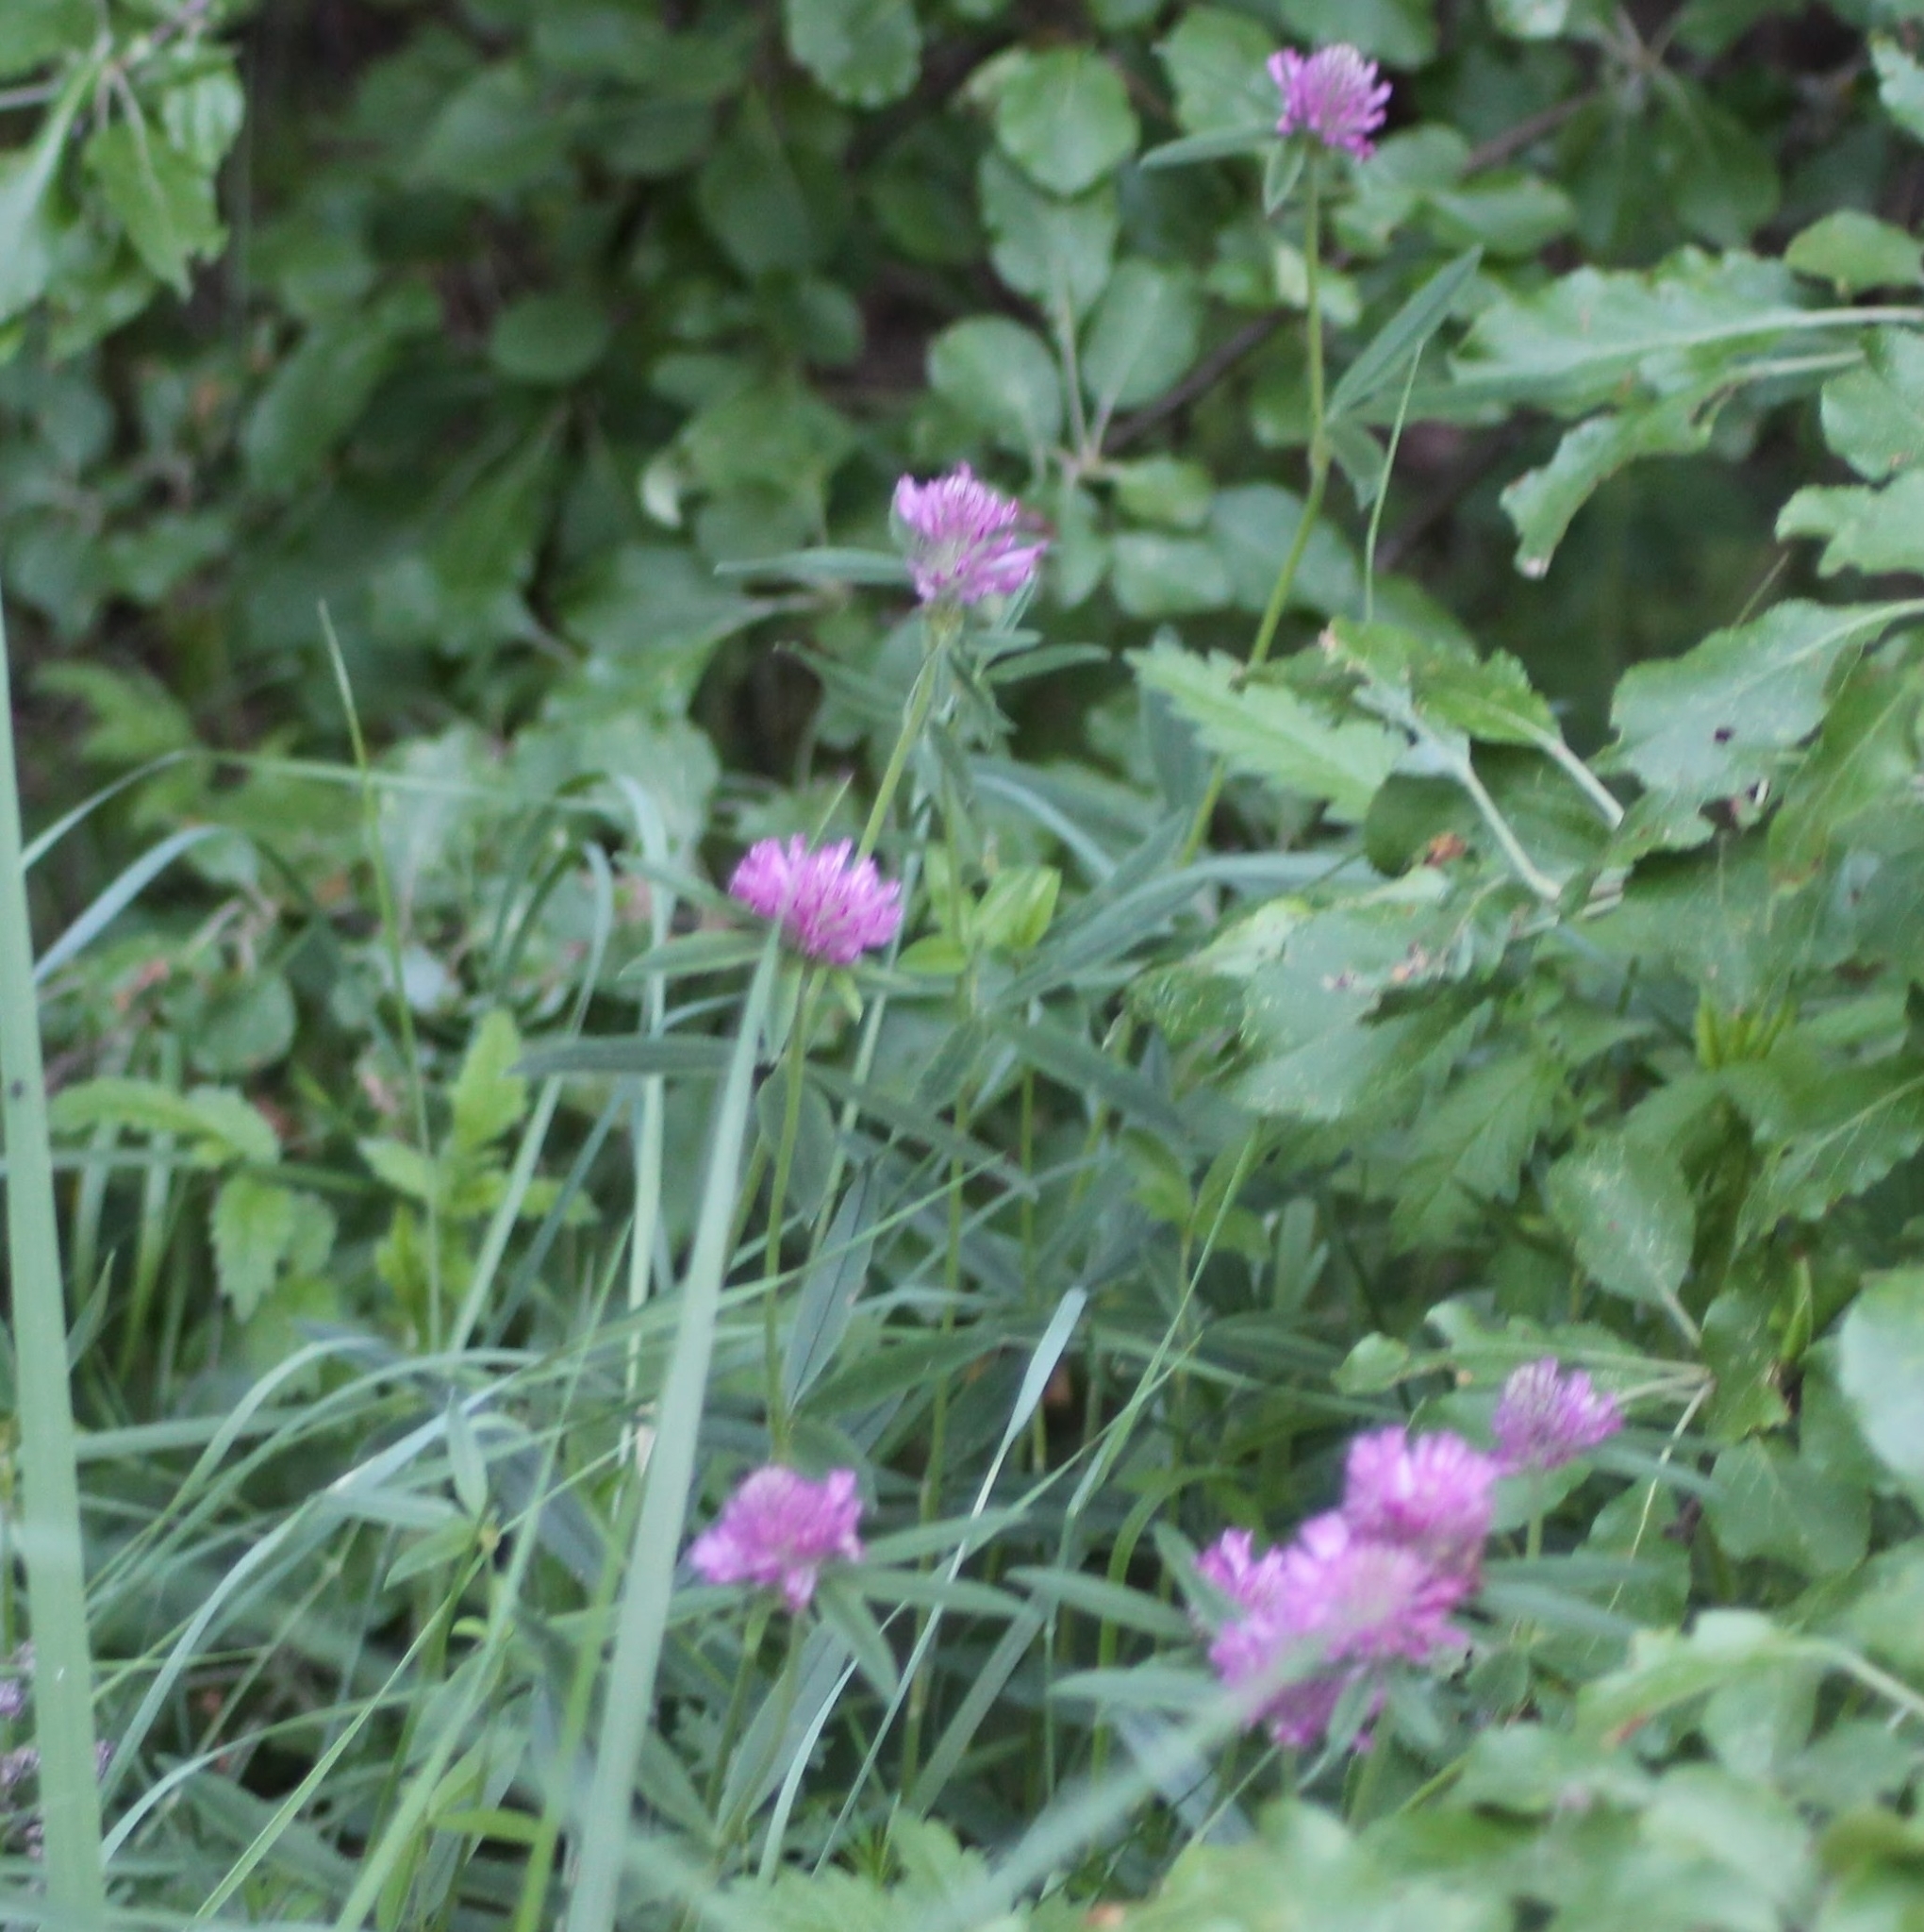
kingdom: Plantae
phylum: Tracheophyta
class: Magnoliopsida
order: Fabales
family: Fabaceae
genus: Trifolium
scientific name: Trifolium alpestre
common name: Owl-head clover
